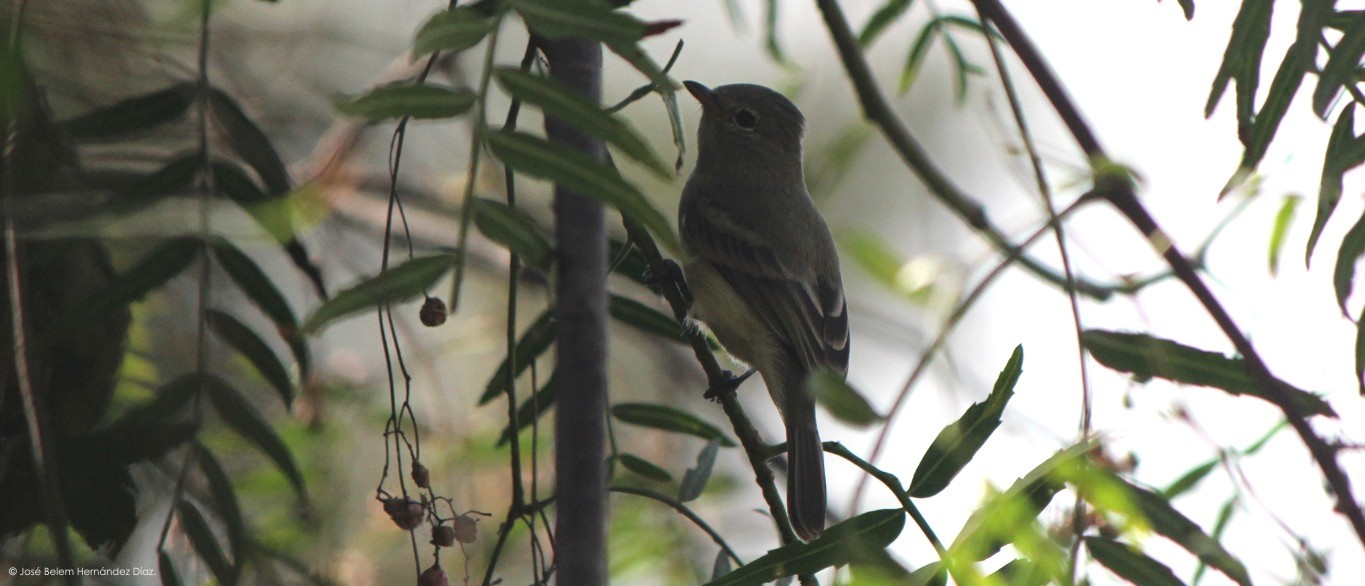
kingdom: Animalia
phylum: Chordata
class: Aves
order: Passeriformes
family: Tyrannidae
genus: Camptostoma
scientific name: Camptostoma imberbe
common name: Northern beardless-tyrannulet
